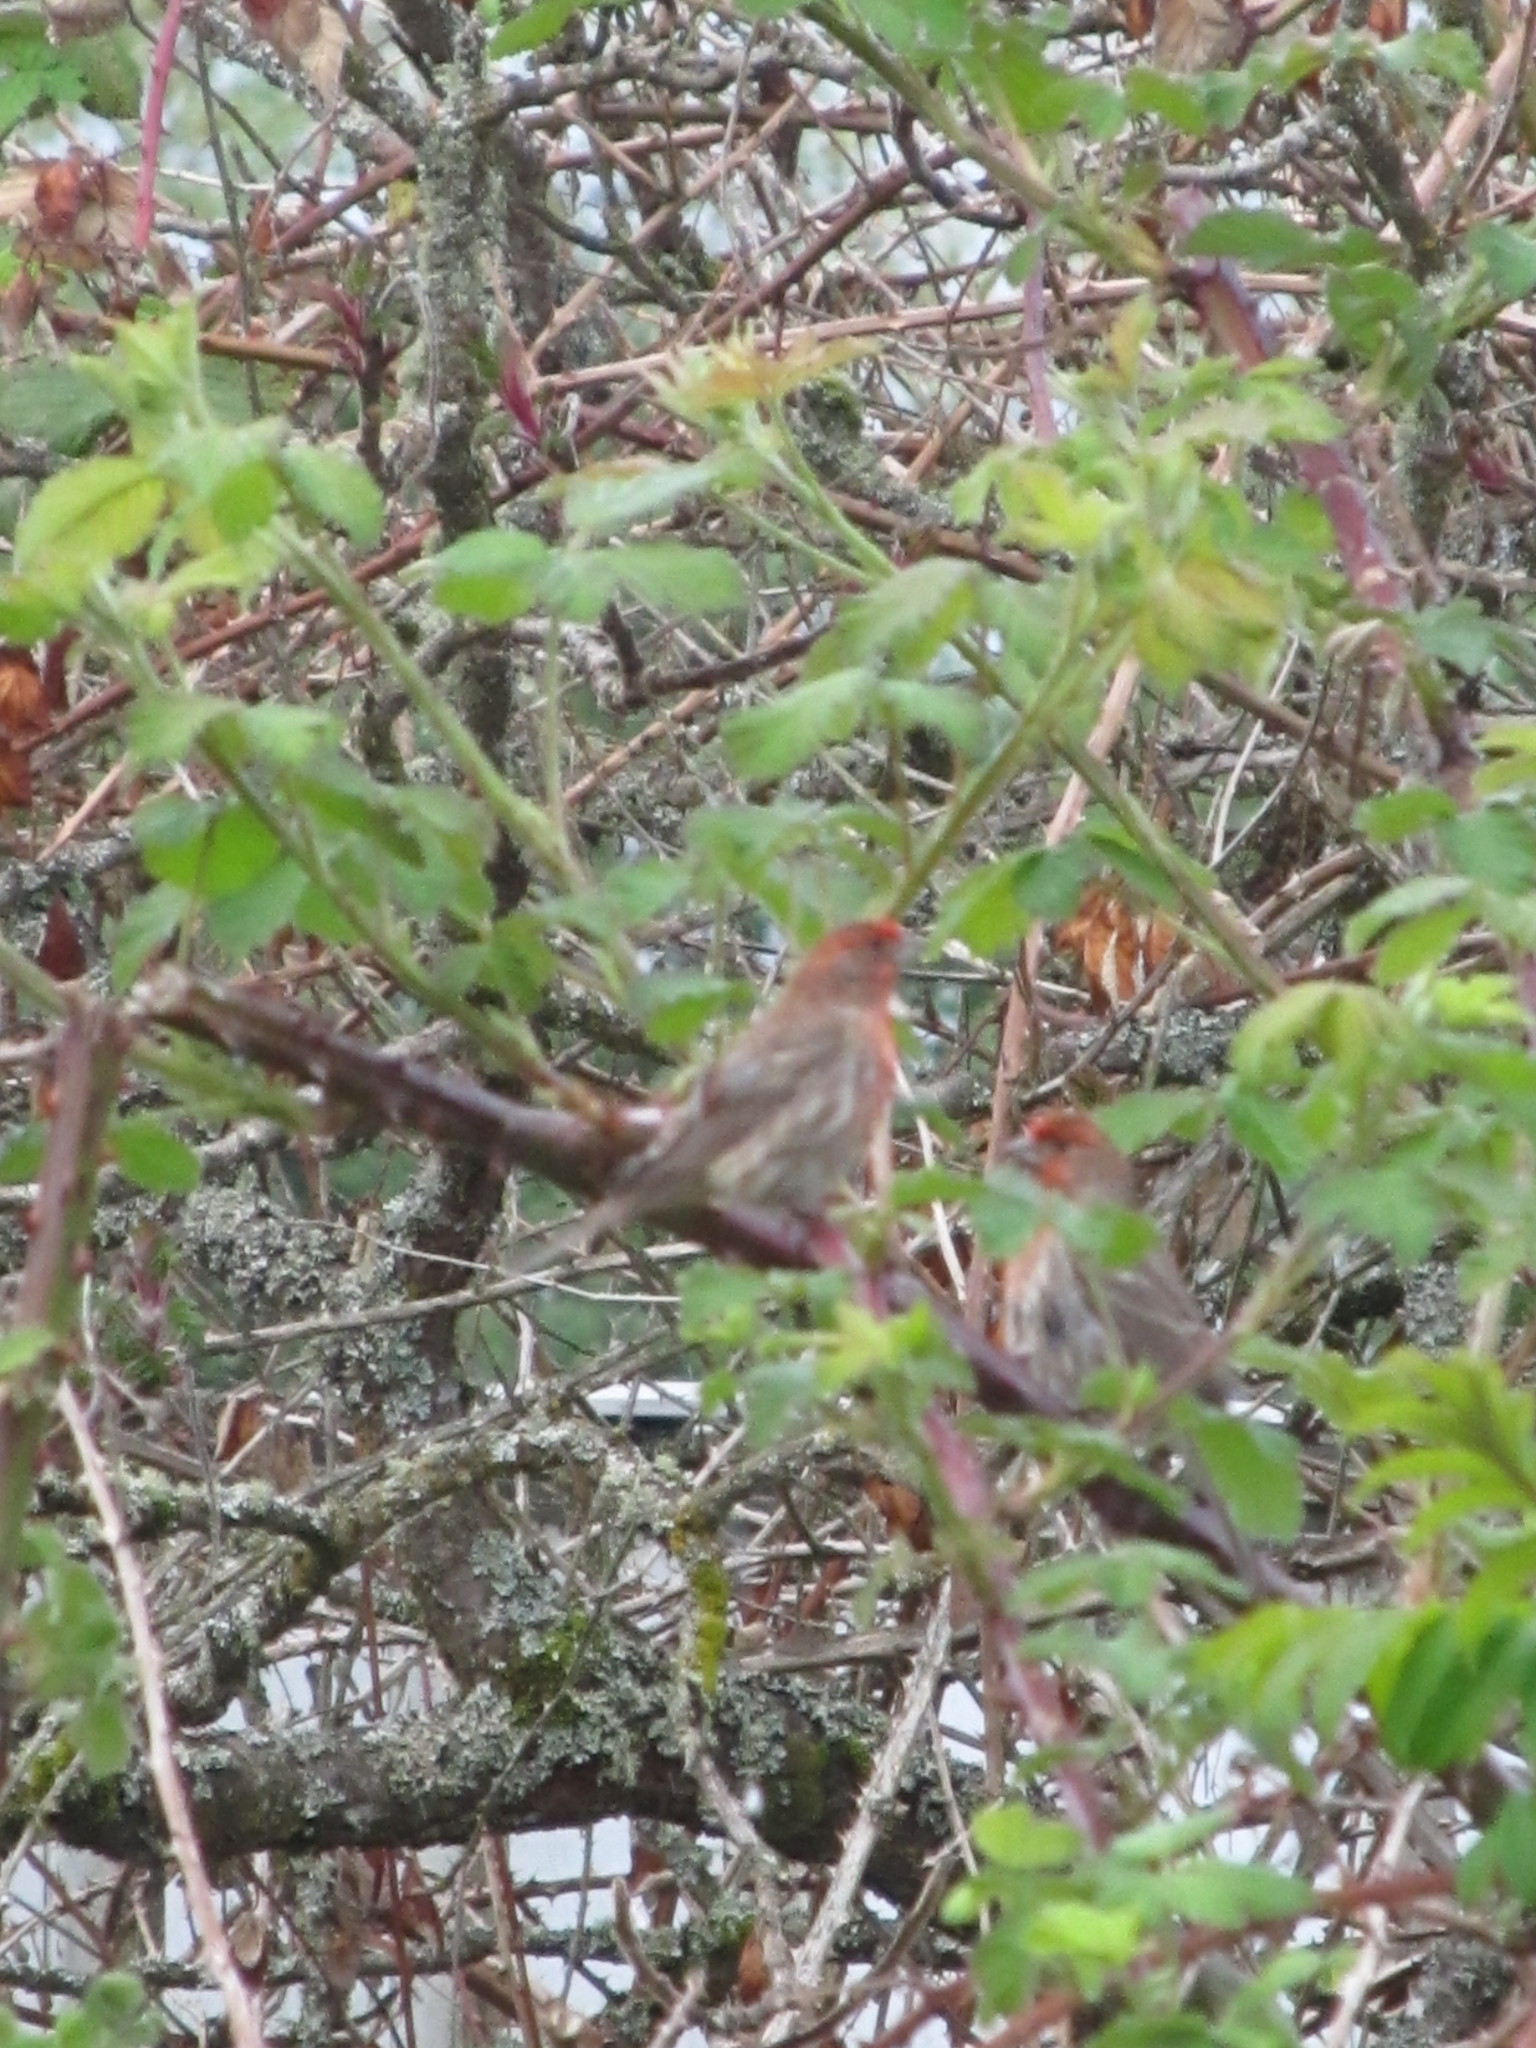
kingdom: Animalia
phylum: Chordata
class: Aves
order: Passeriformes
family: Fringillidae
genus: Haemorhous
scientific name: Haemorhous mexicanus
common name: House finch
